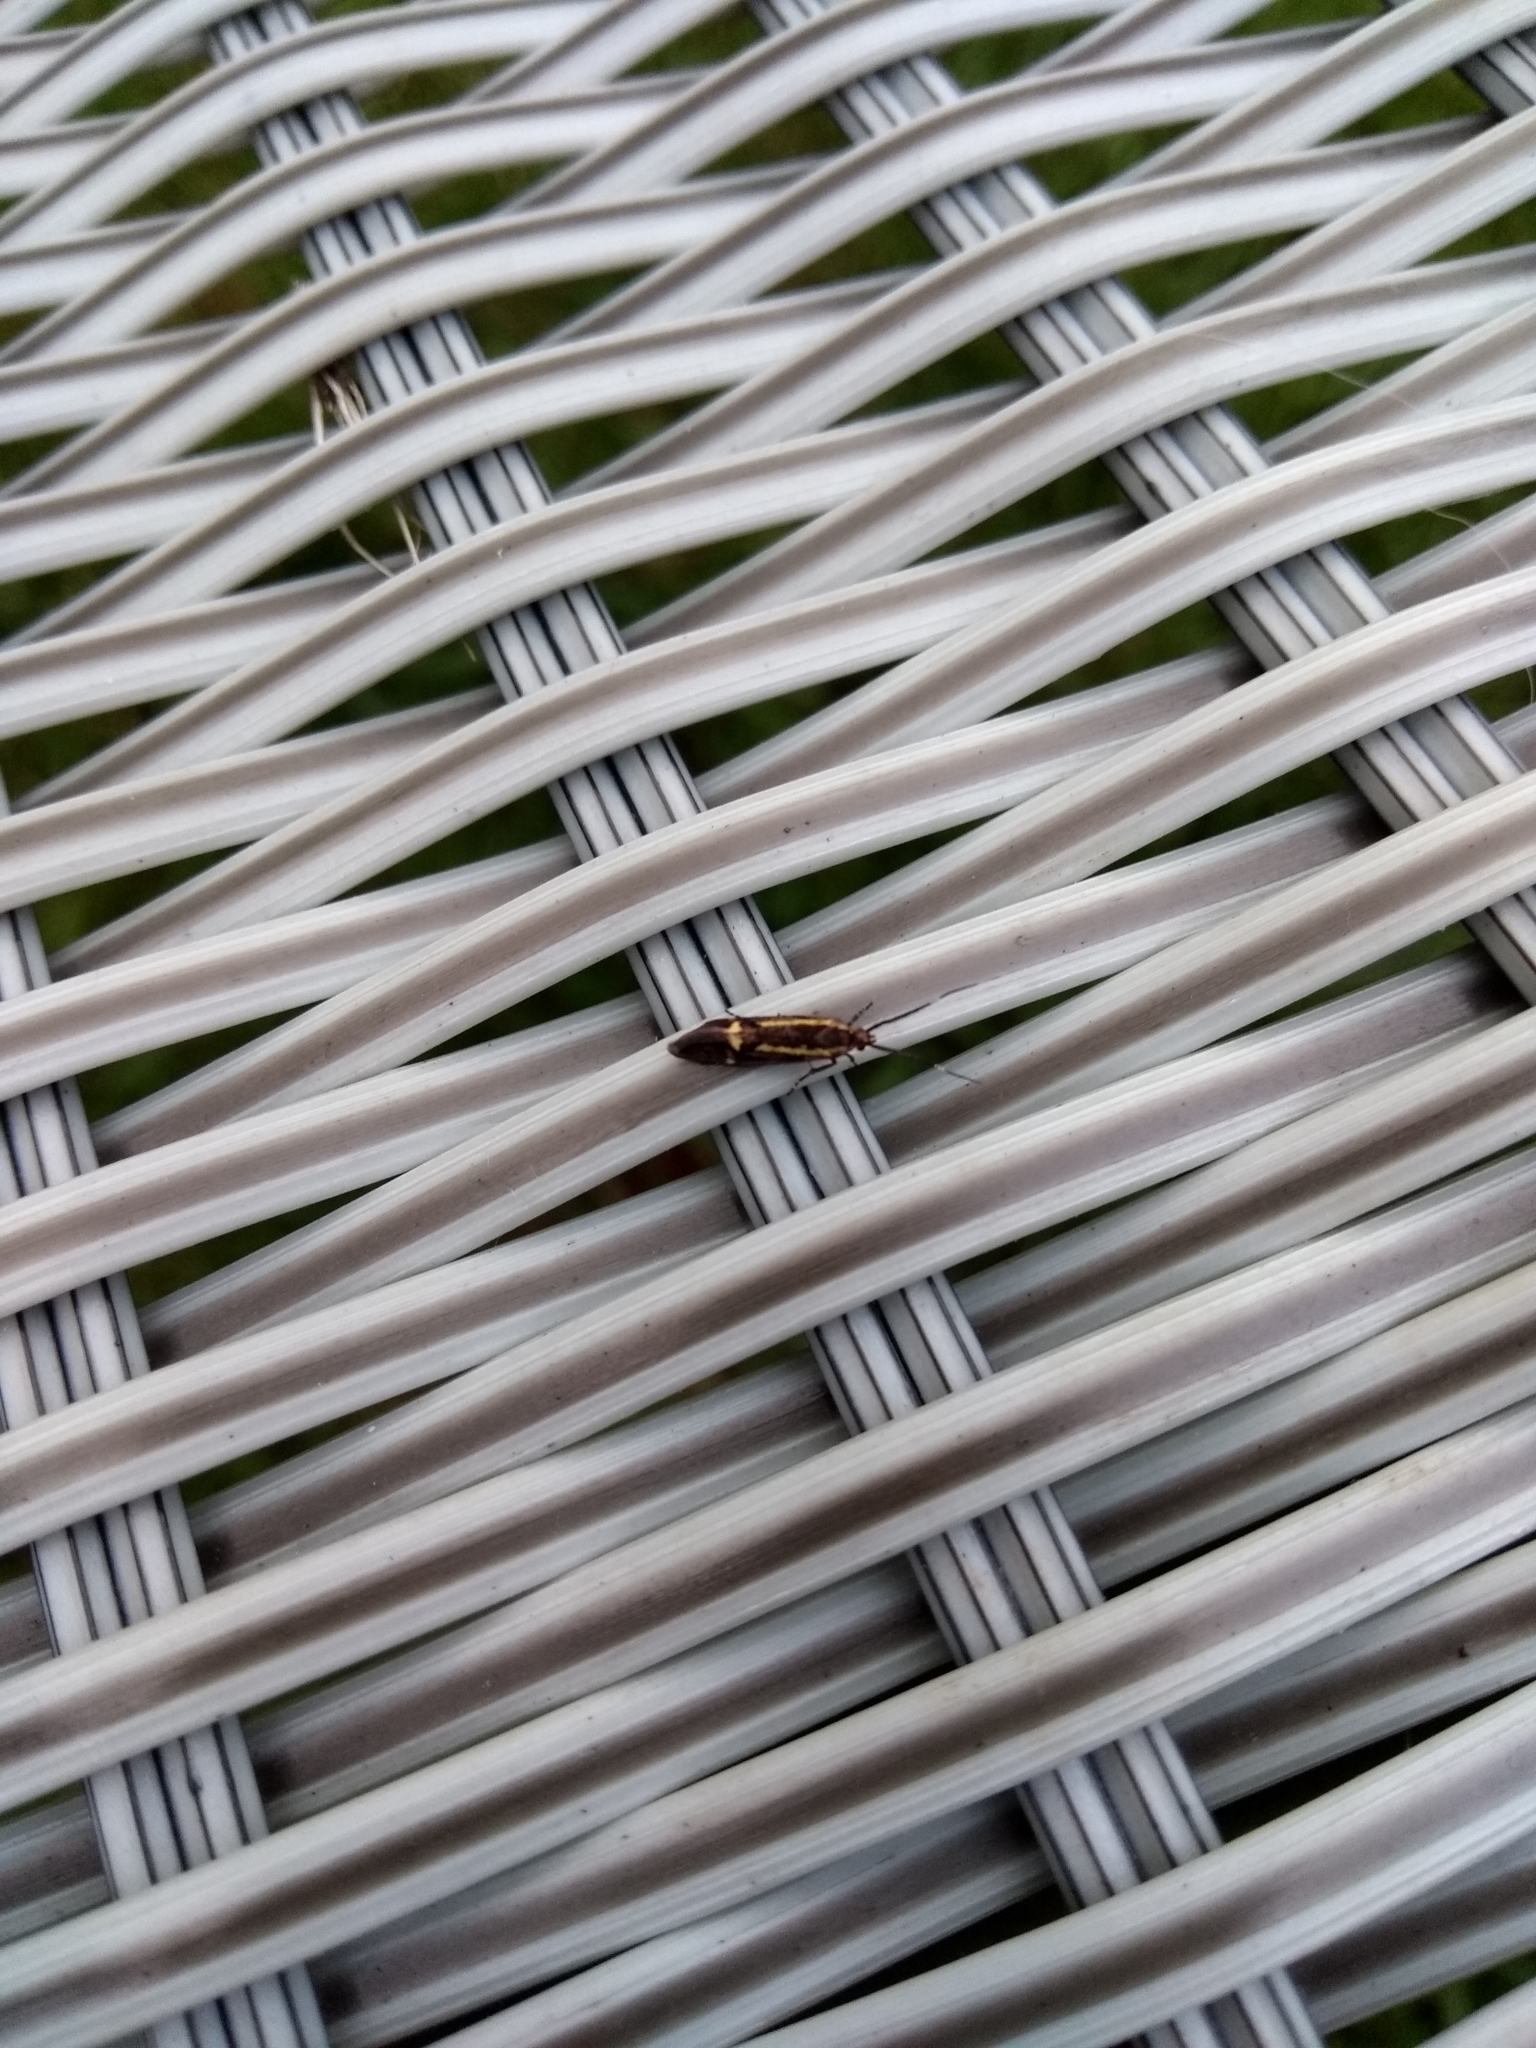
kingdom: Animalia
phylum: Arthropoda
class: Insecta
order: Lepidoptera
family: Oecophoridae
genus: Dafa
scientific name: Dafa Esperia sulphurella
